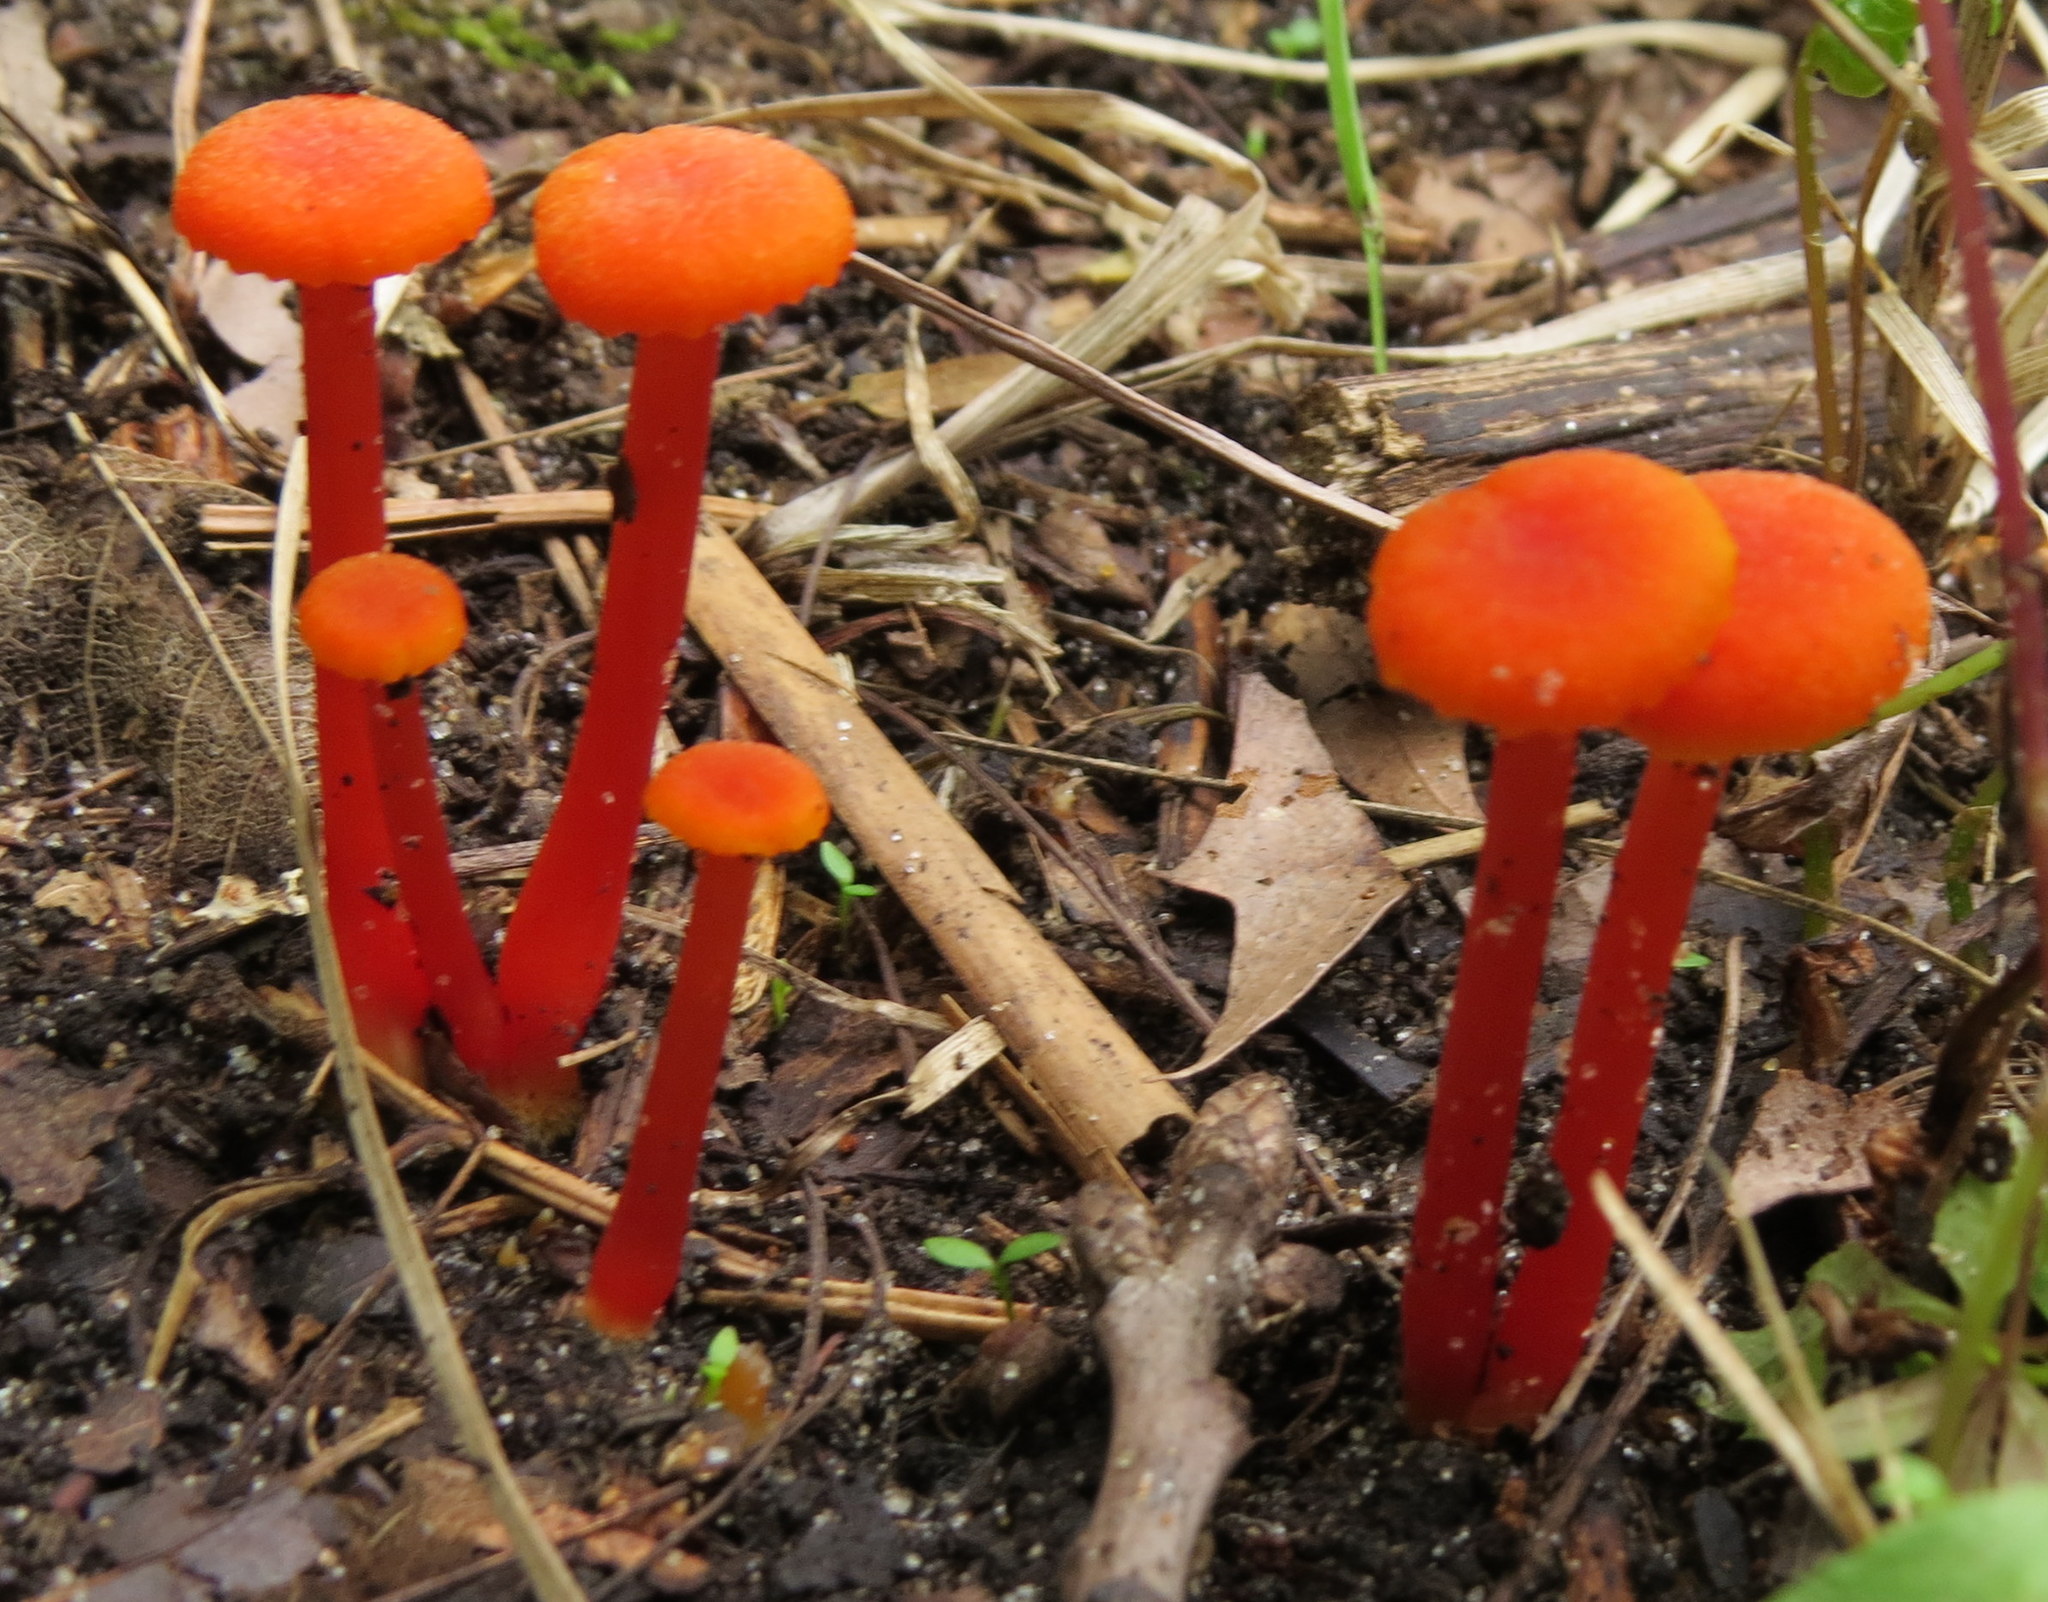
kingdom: Fungi
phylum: Basidiomycota
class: Agaricomycetes
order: Agaricales
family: Hygrophoraceae
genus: Hygrocybe
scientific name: Hygrocybe cantharellus
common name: Goblet waxcap
